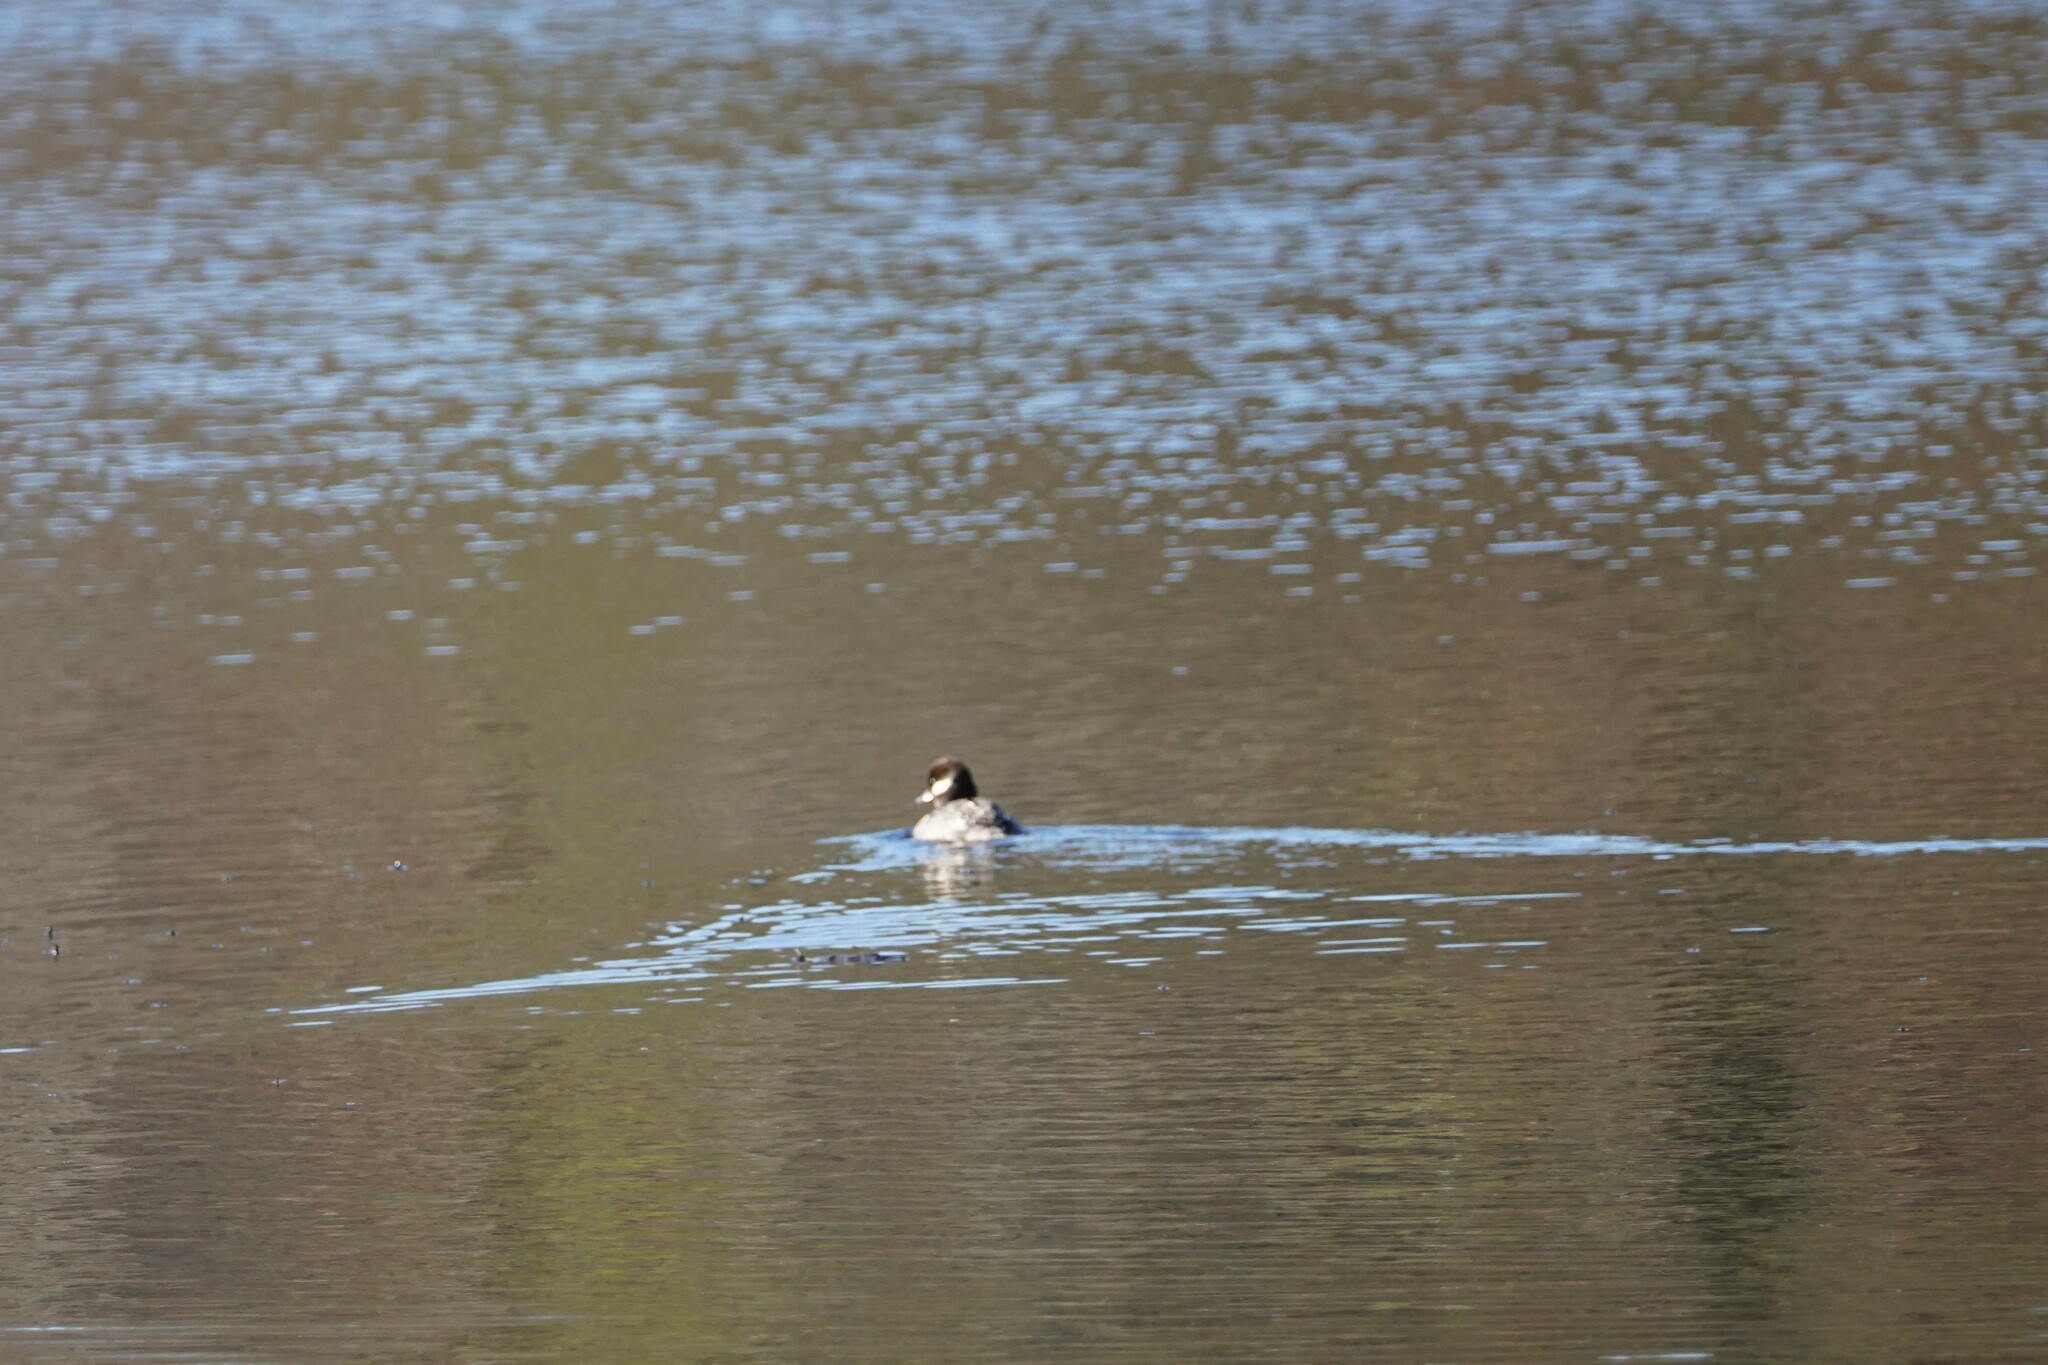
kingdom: Animalia
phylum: Chordata
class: Aves
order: Anseriformes
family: Anatidae
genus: Bucephala
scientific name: Bucephala albeola
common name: Bufflehead
